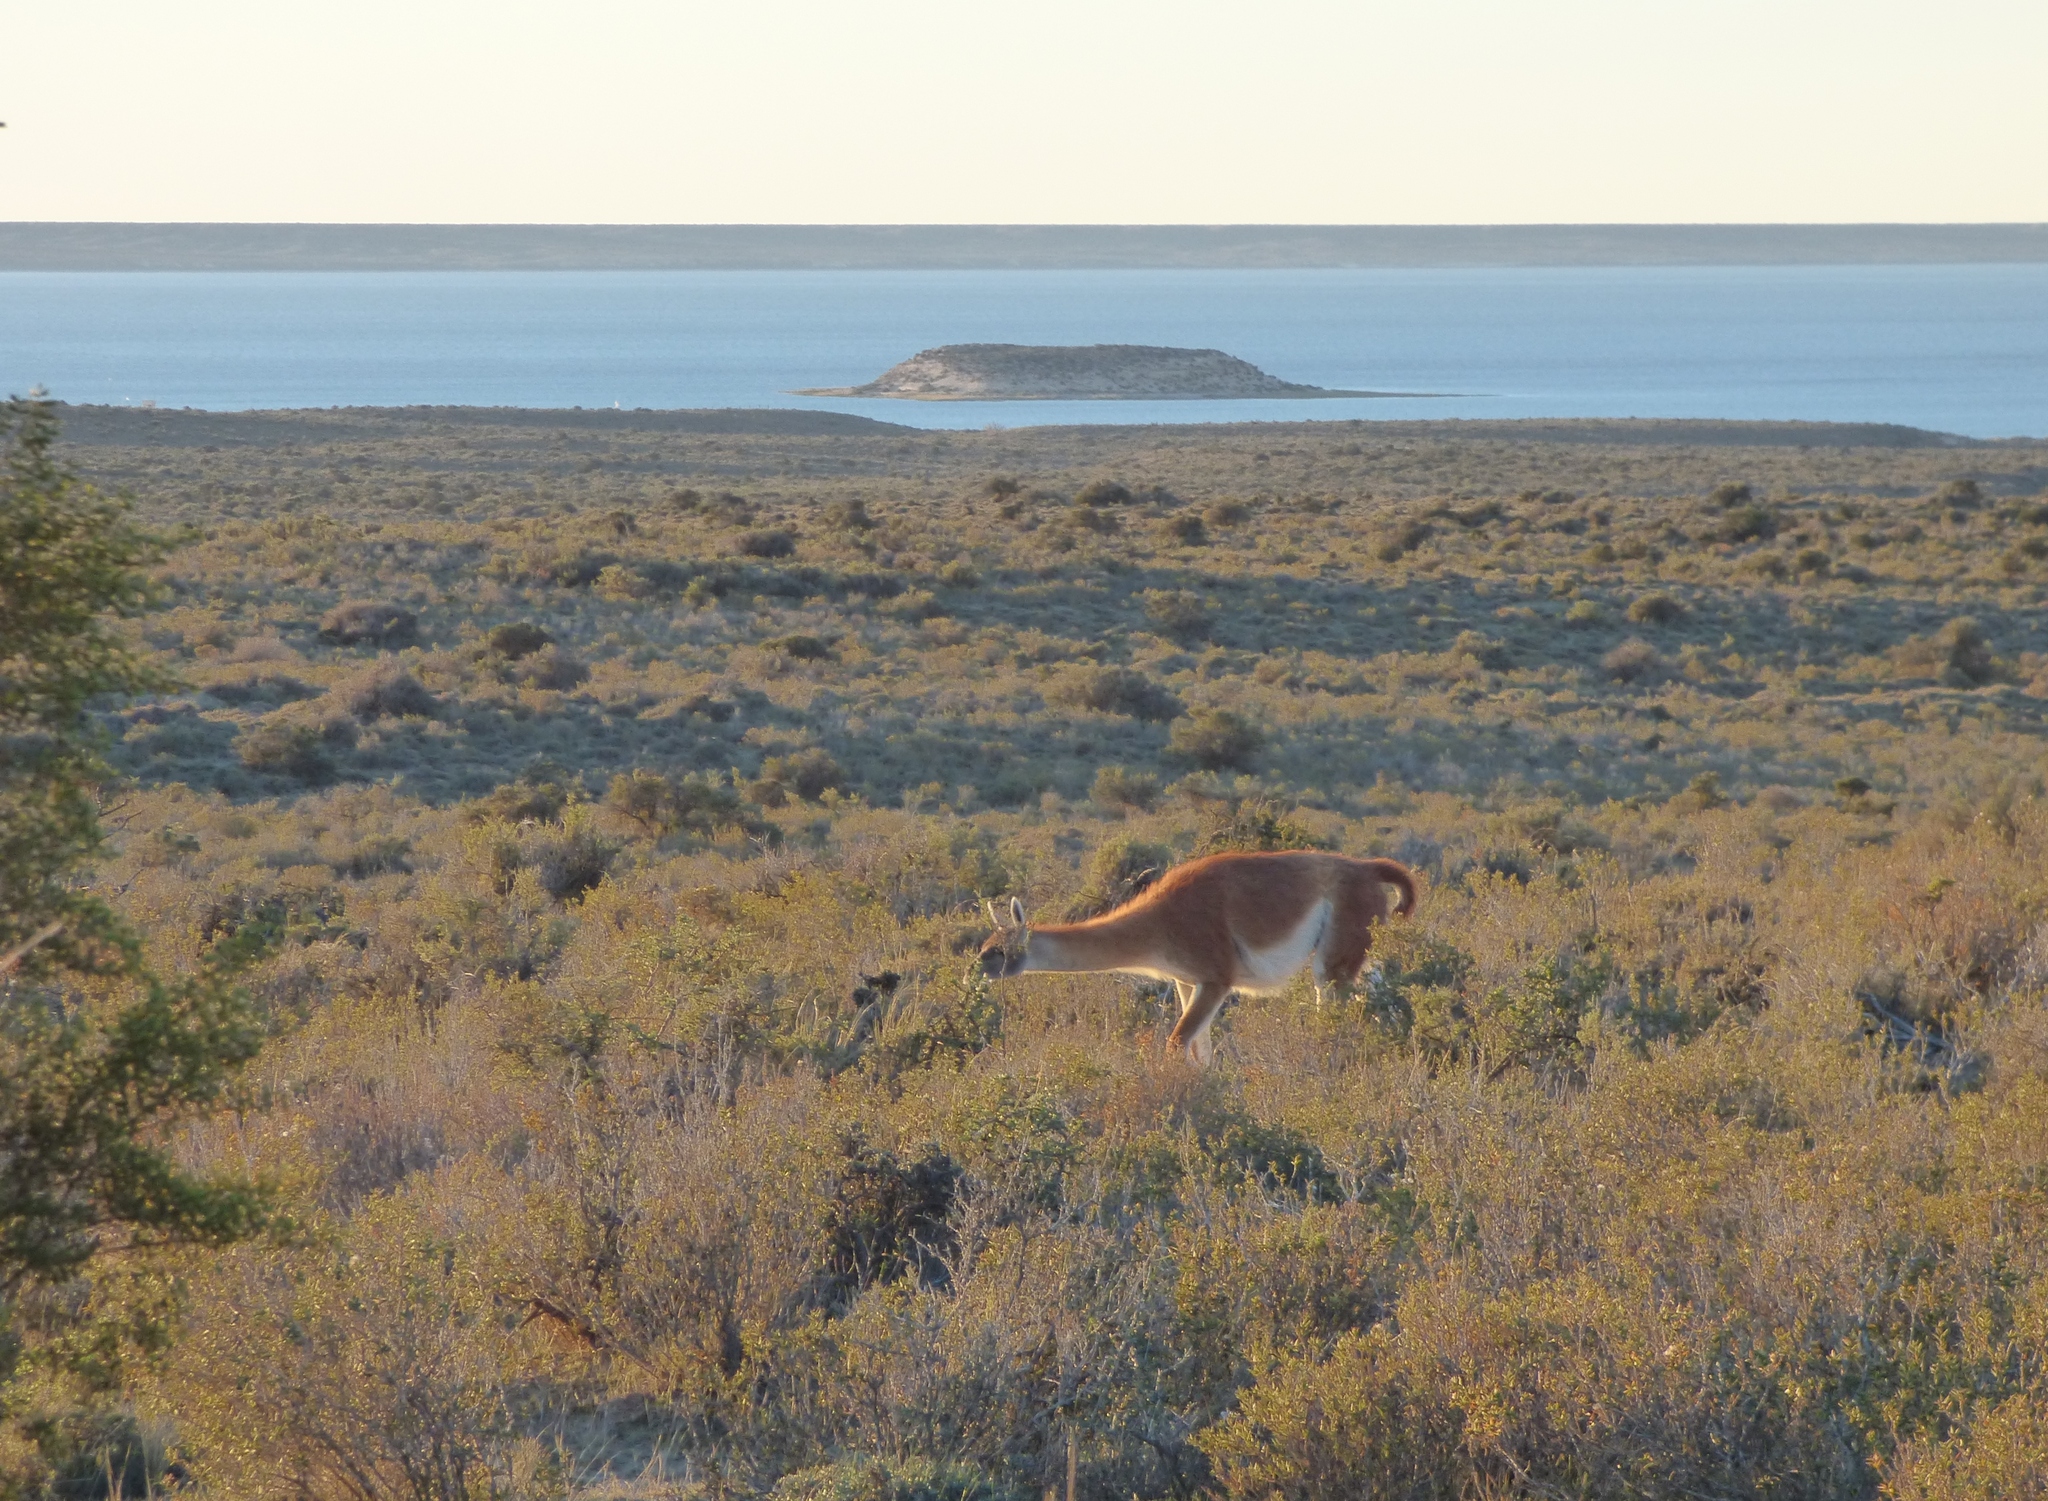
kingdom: Animalia
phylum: Chordata
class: Mammalia
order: Artiodactyla
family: Camelidae
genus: Lama
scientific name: Lama glama
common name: Llama
